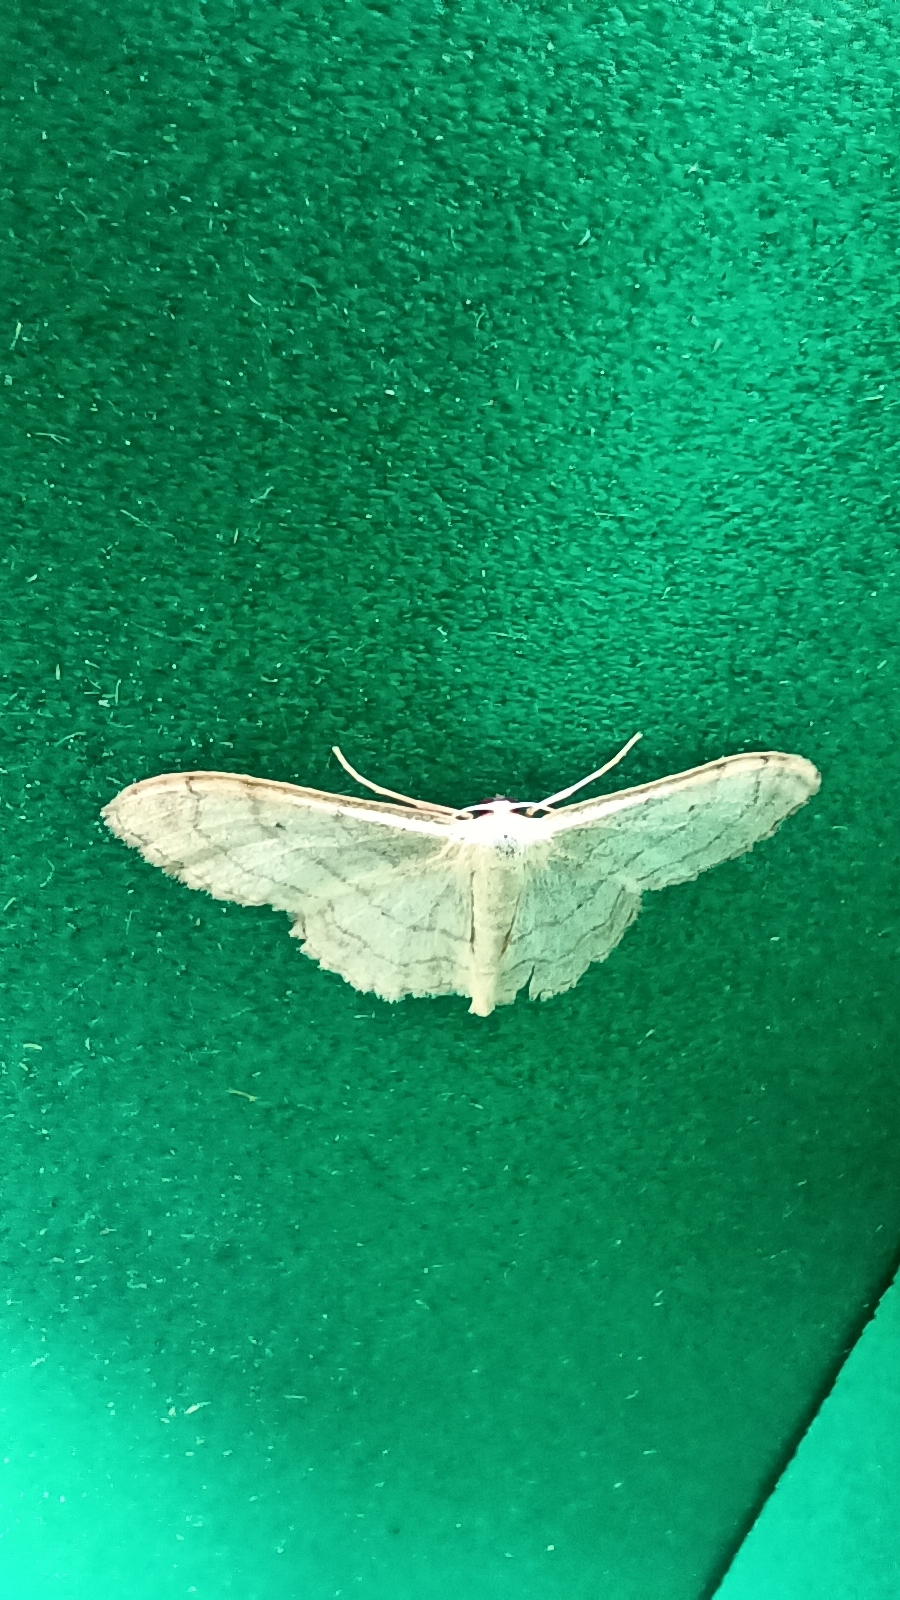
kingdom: Animalia
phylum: Arthropoda
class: Insecta
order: Lepidoptera
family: Geometridae
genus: Idaea
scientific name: Idaea aversata
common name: Riband wave
